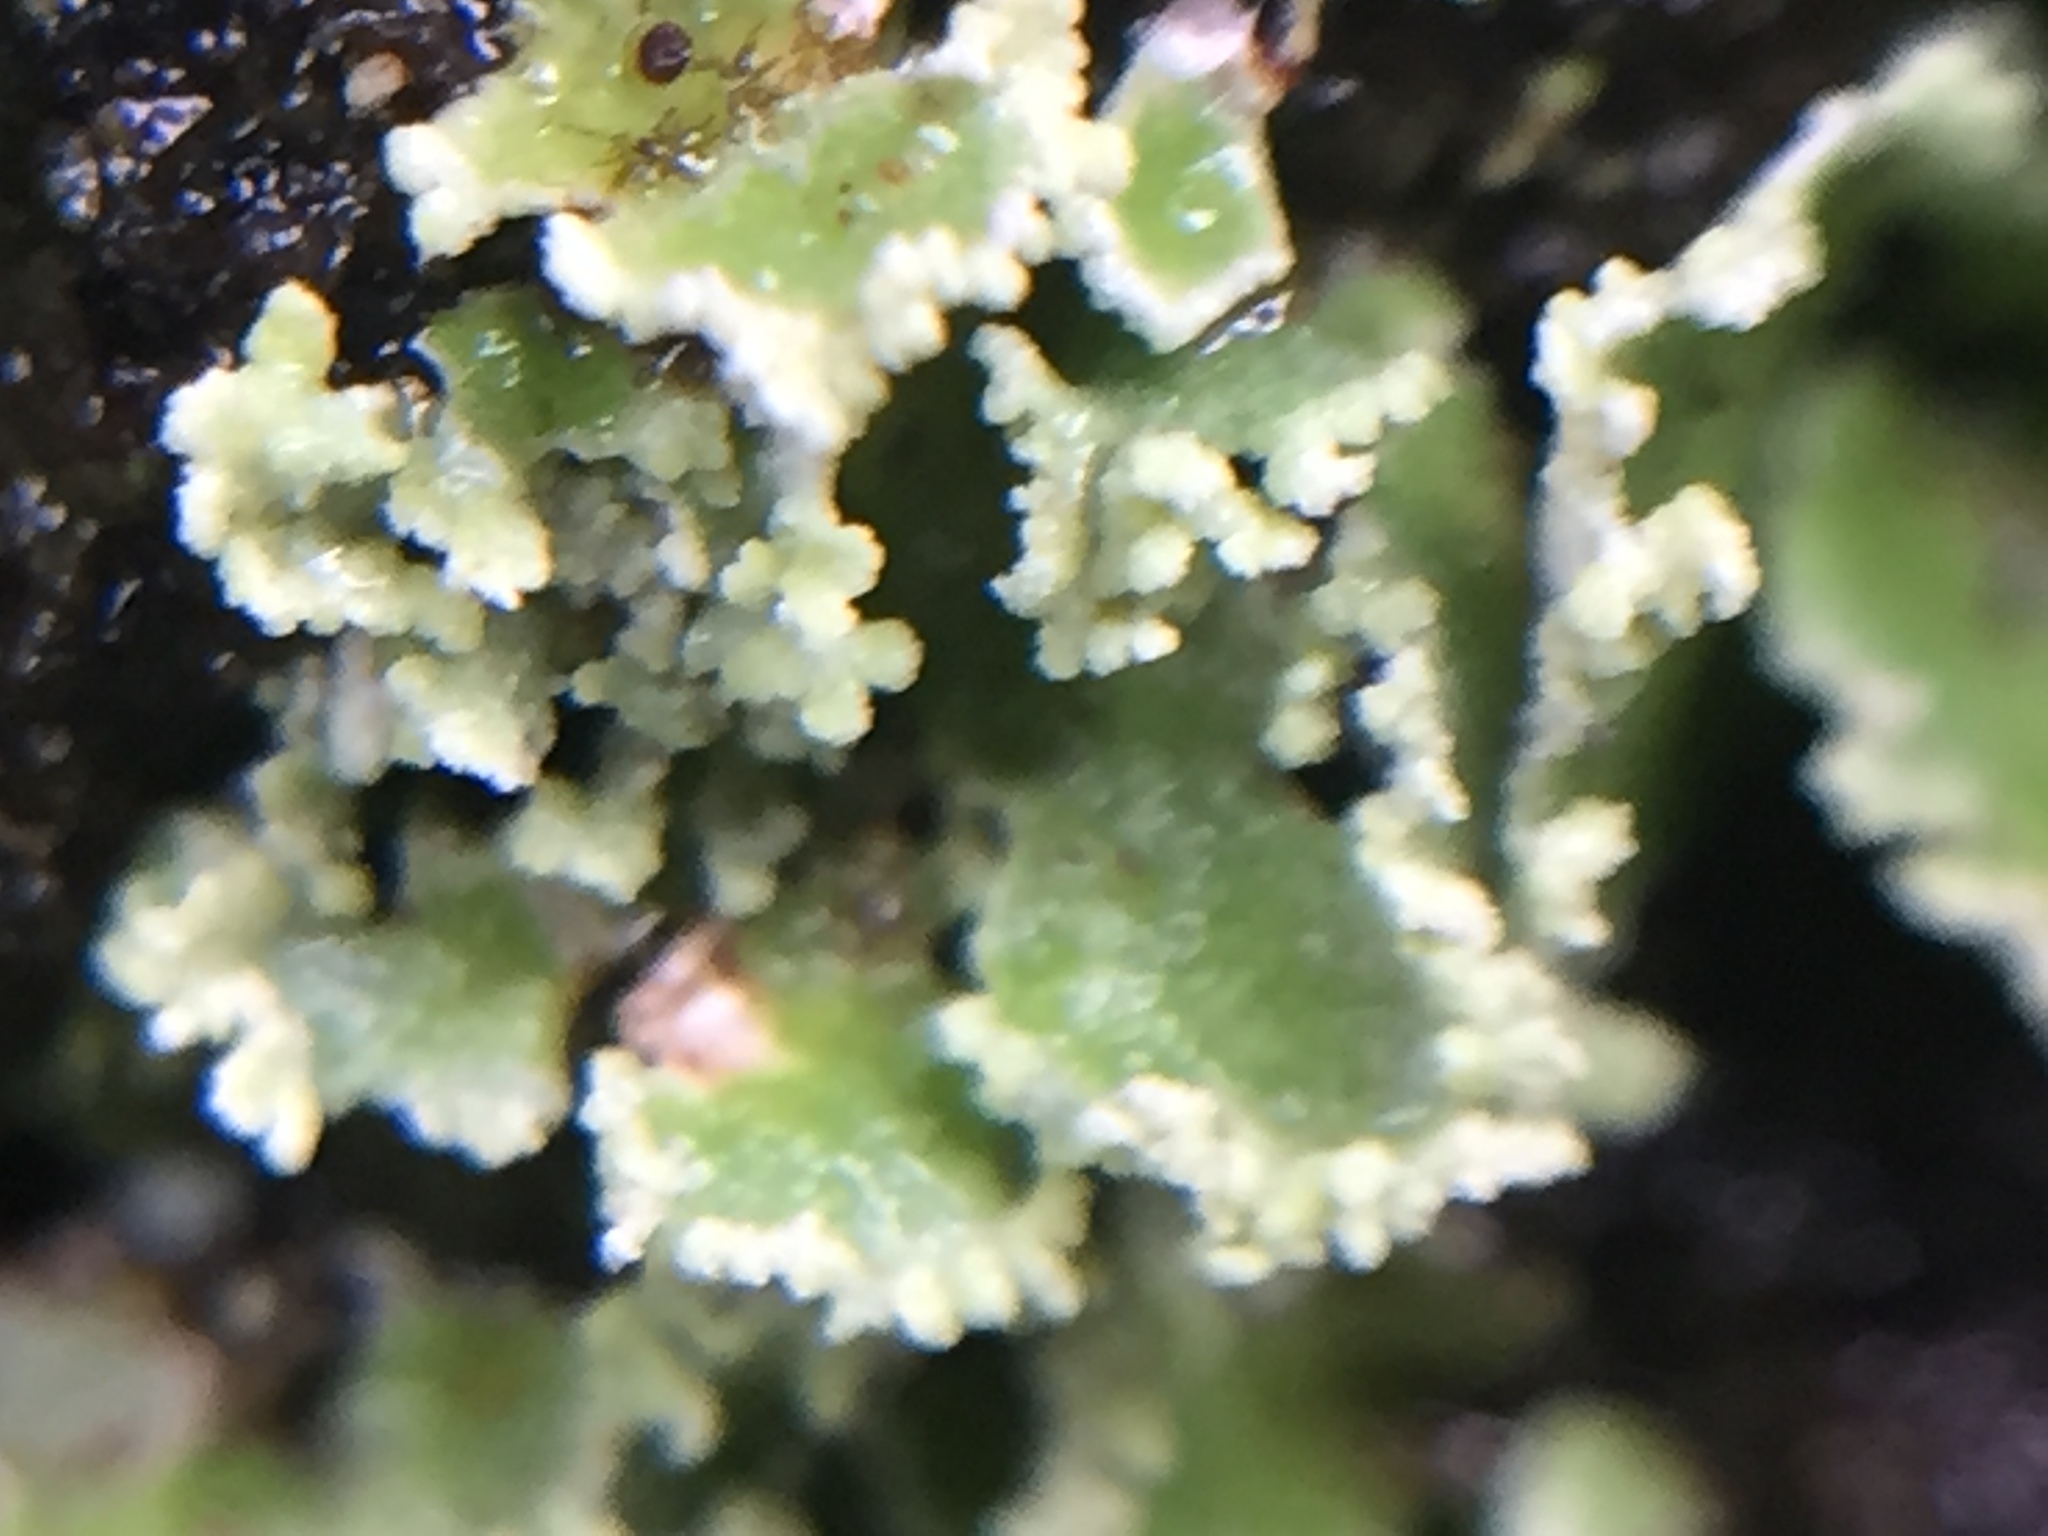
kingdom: Fungi
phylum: Ascomycota
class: Lecanoromycetes
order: Lecanorales
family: Cladoniaceae
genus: Cladonia
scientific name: Cladonia enantia
